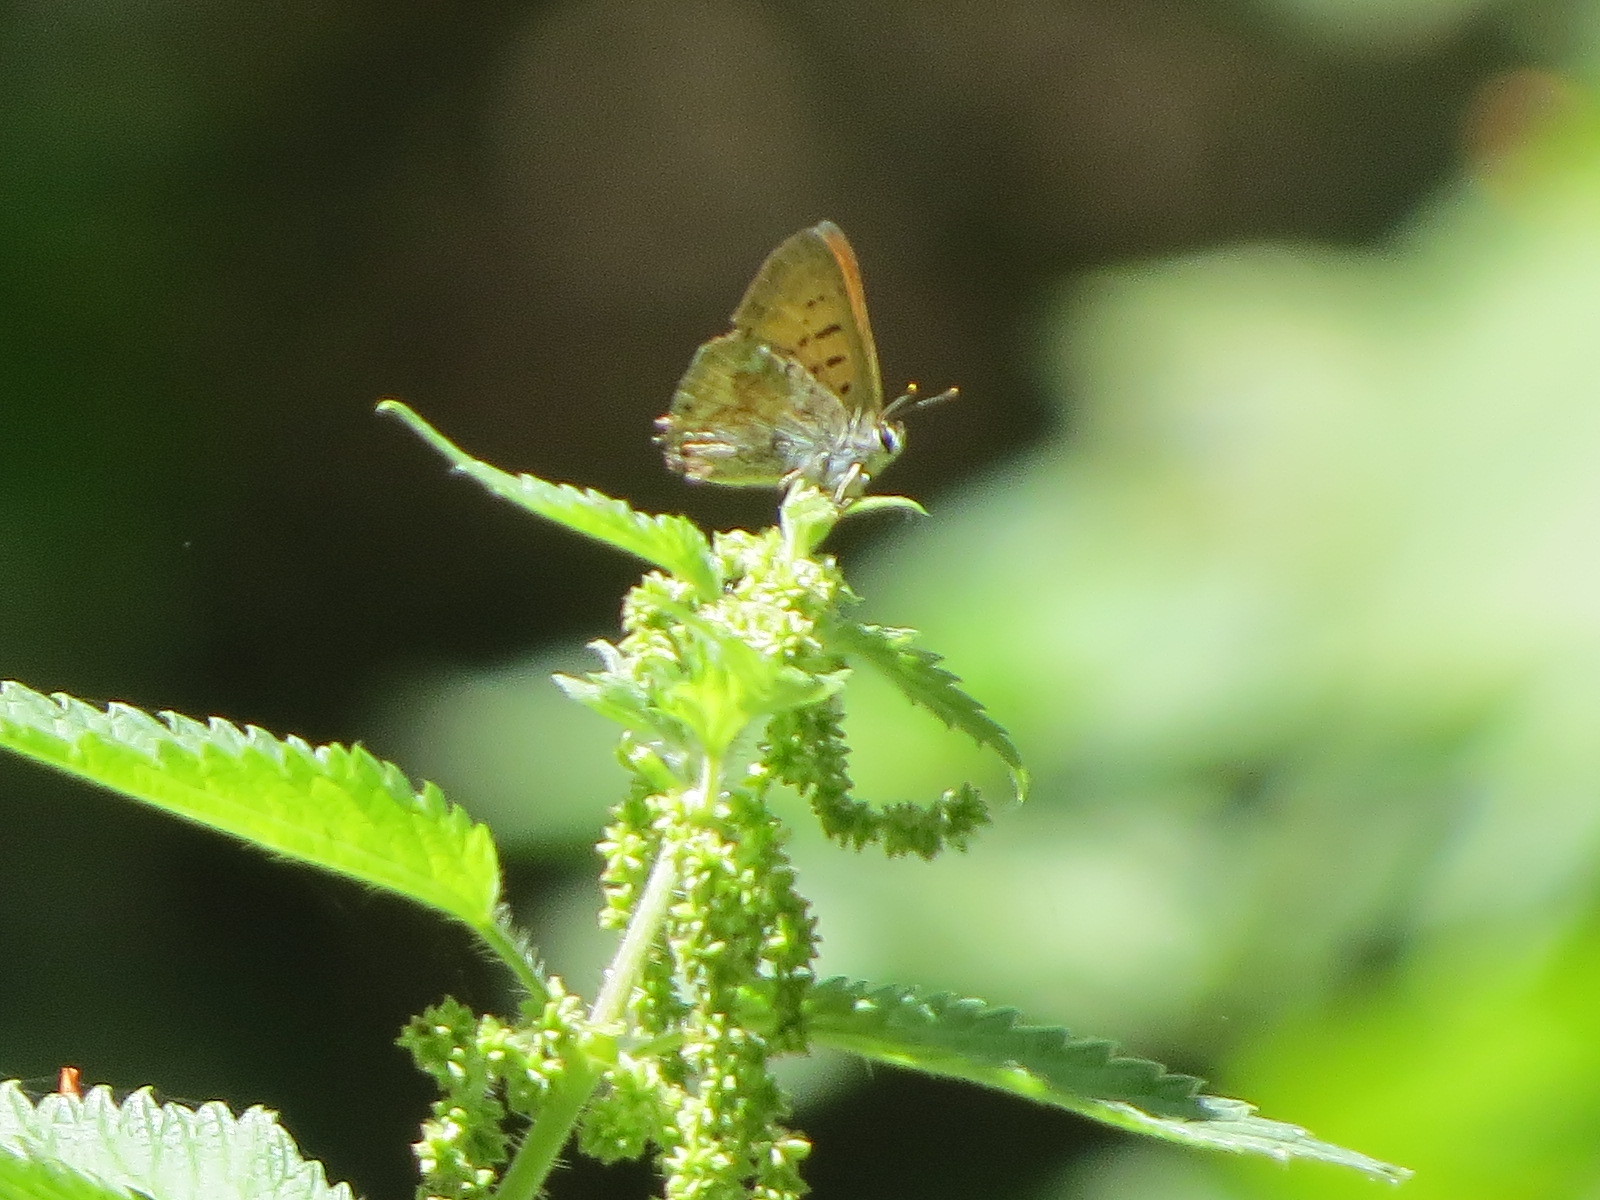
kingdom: Animalia
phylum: Arthropoda
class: Insecta
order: Lepidoptera
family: Lycaenidae
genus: Tharsalea
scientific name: Tharsalea arota
